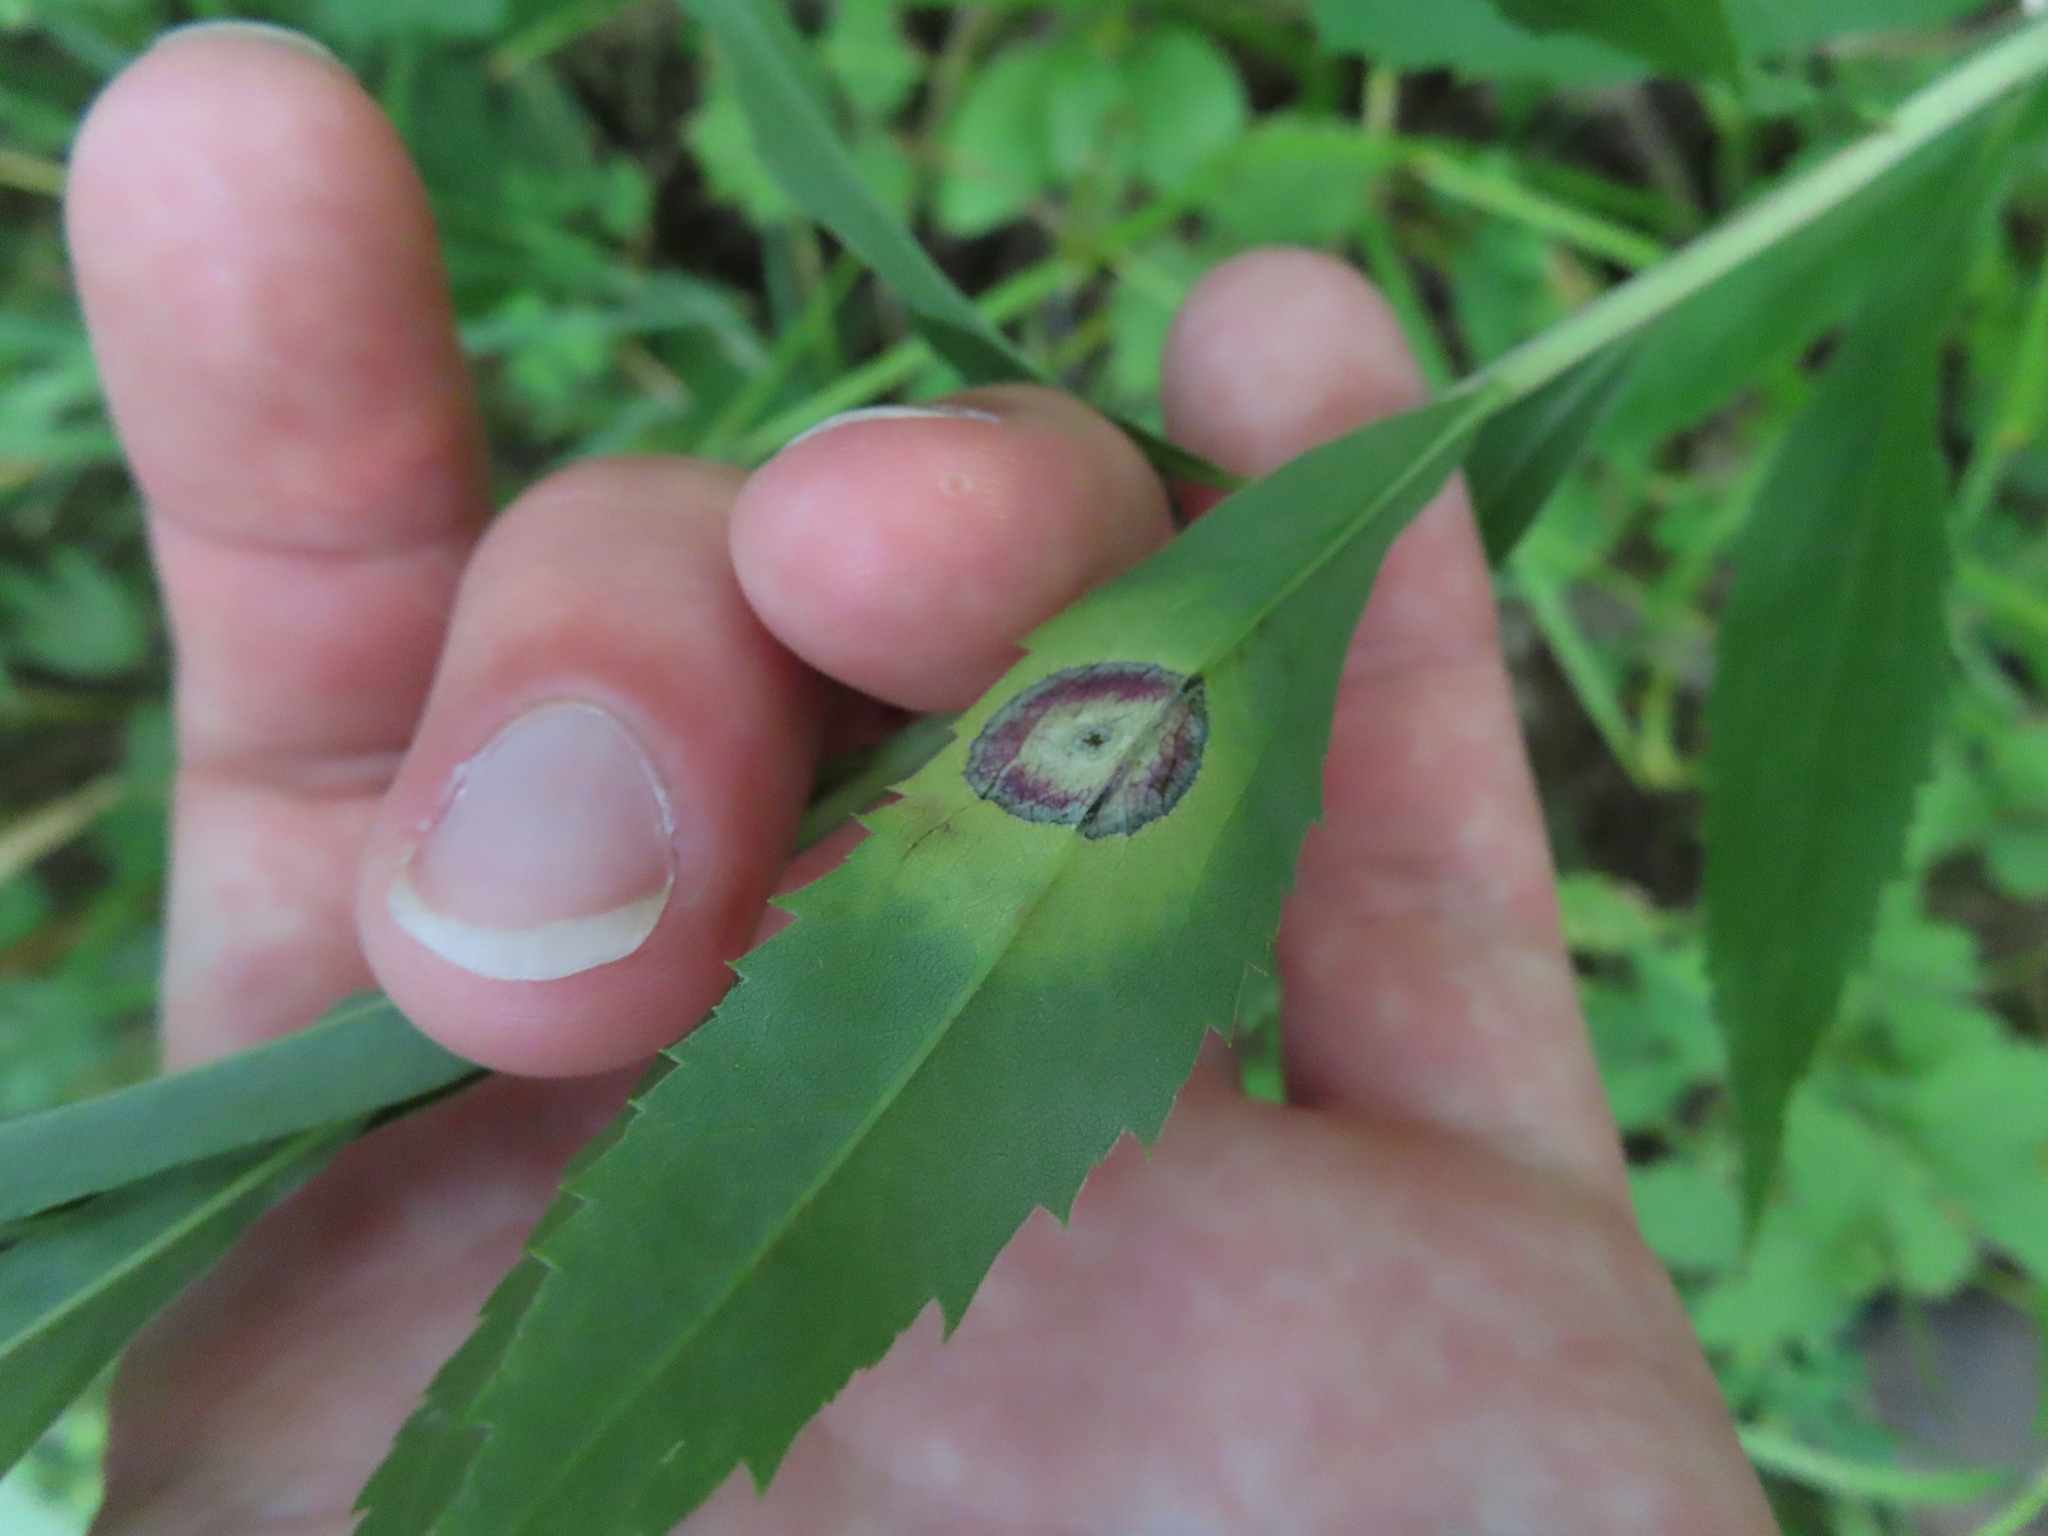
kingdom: Animalia
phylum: Arthropoda
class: Insecta
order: Diptera
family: Cecidomyiidae
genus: Asteromyia
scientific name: Asteromyia carbonifera
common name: Carbonifera goldenrod gall midge
